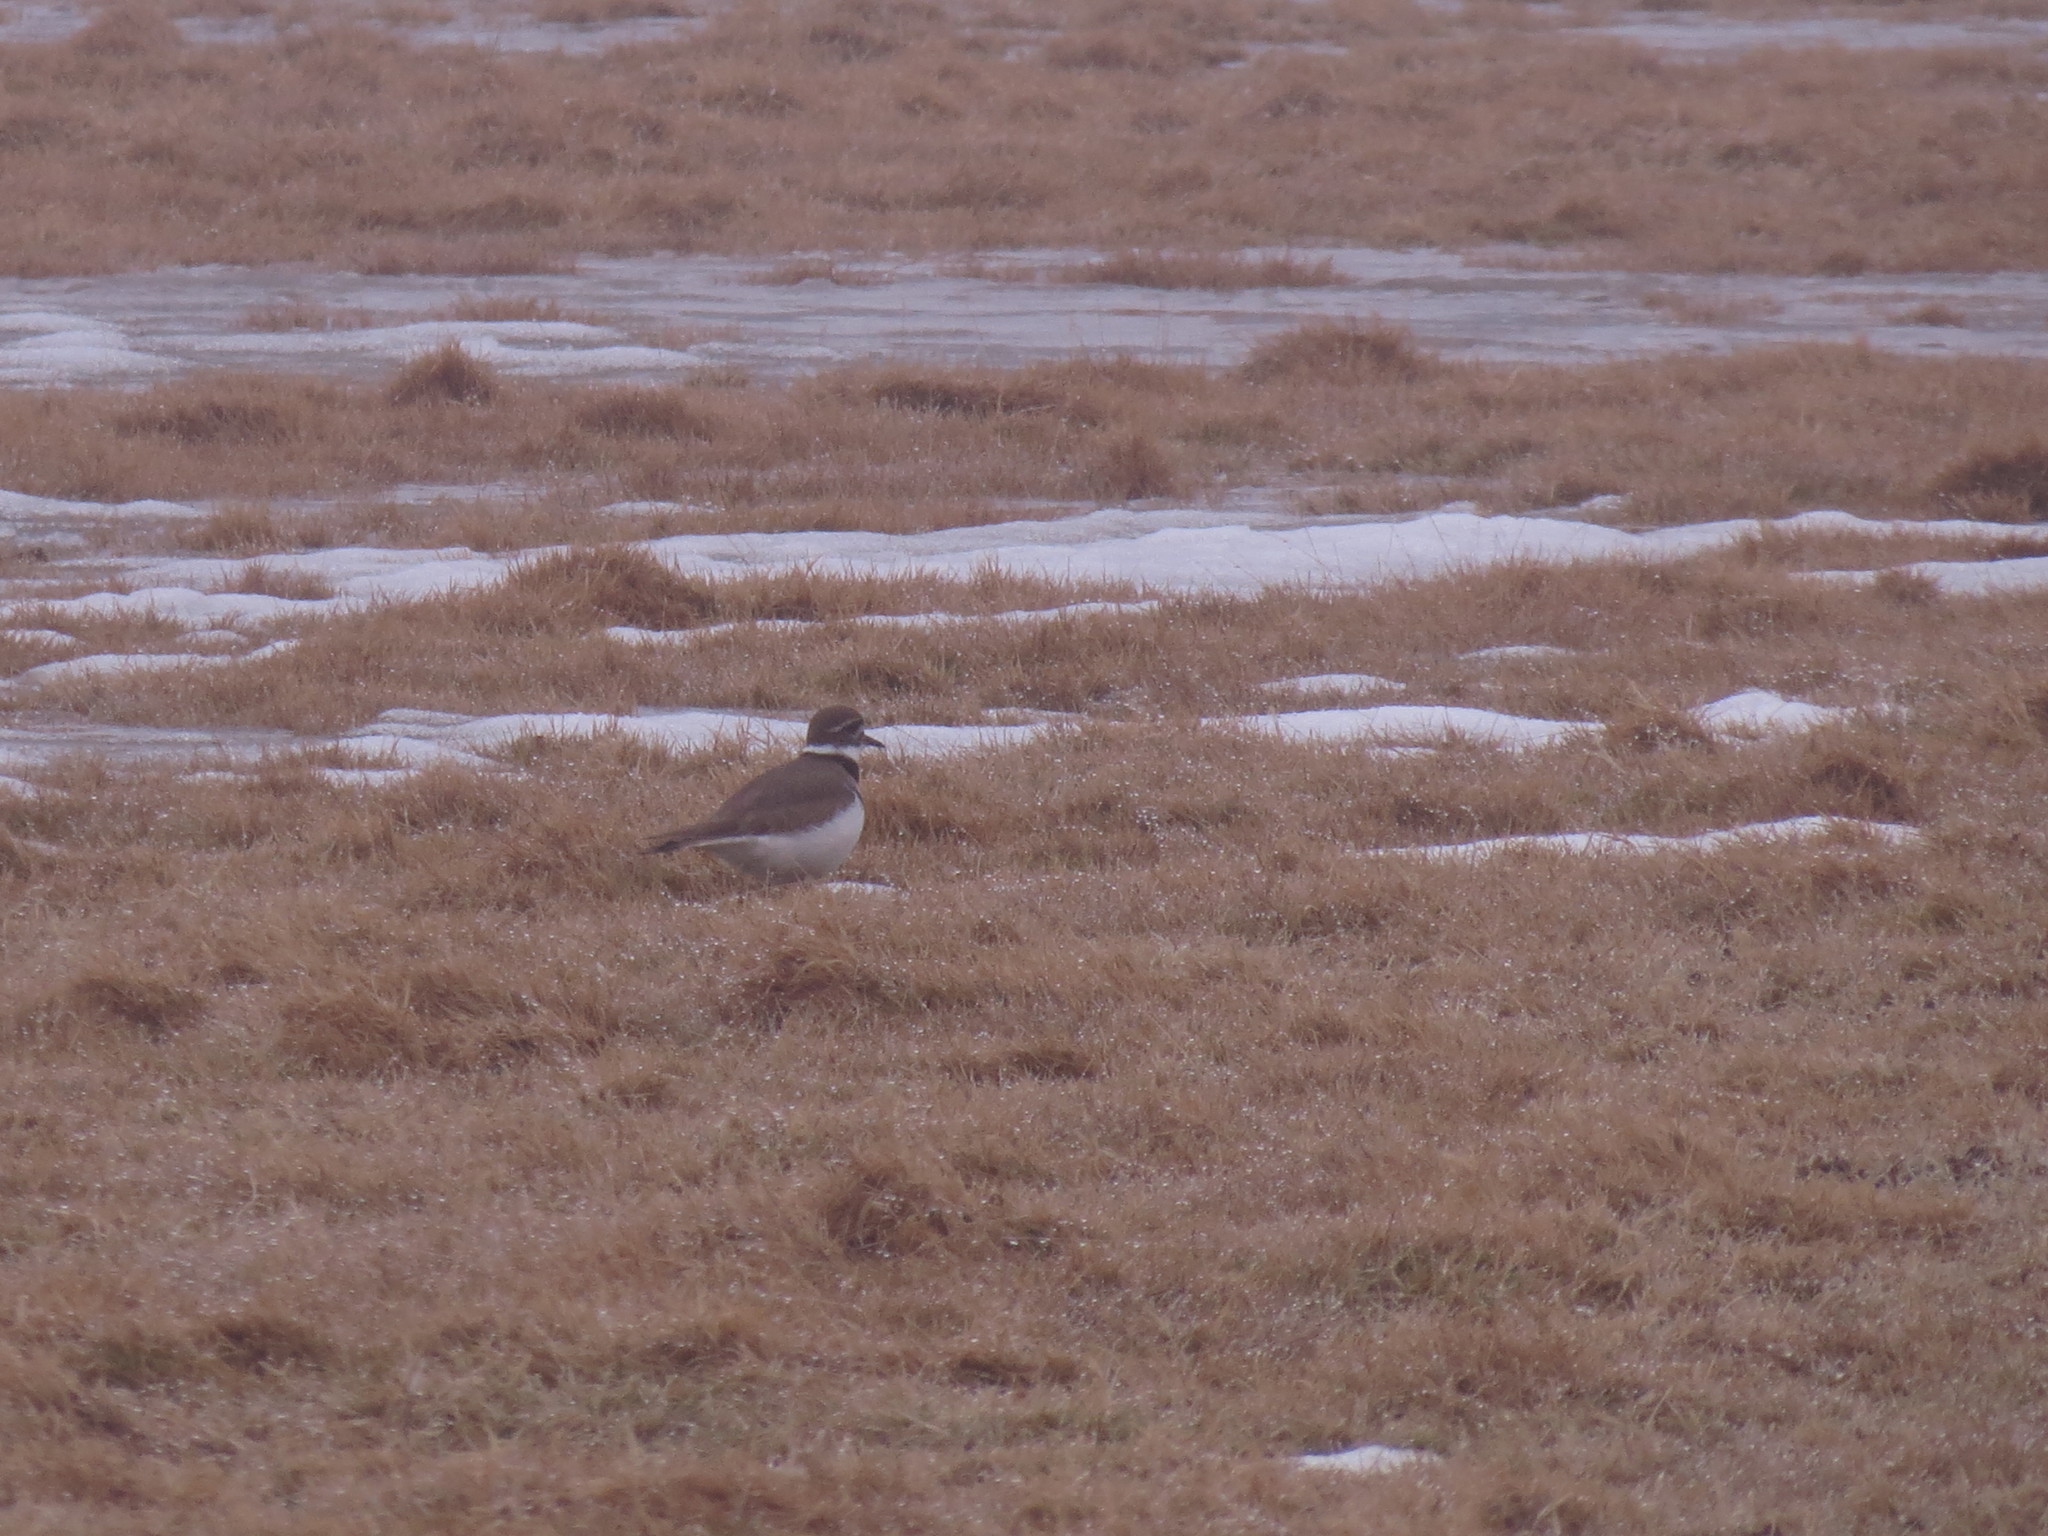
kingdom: Animalia
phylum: Chordata
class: Aves
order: Charadriiformes
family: Charadriidae
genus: Charadrius
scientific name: Charadrius vociferus
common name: Killdeer
